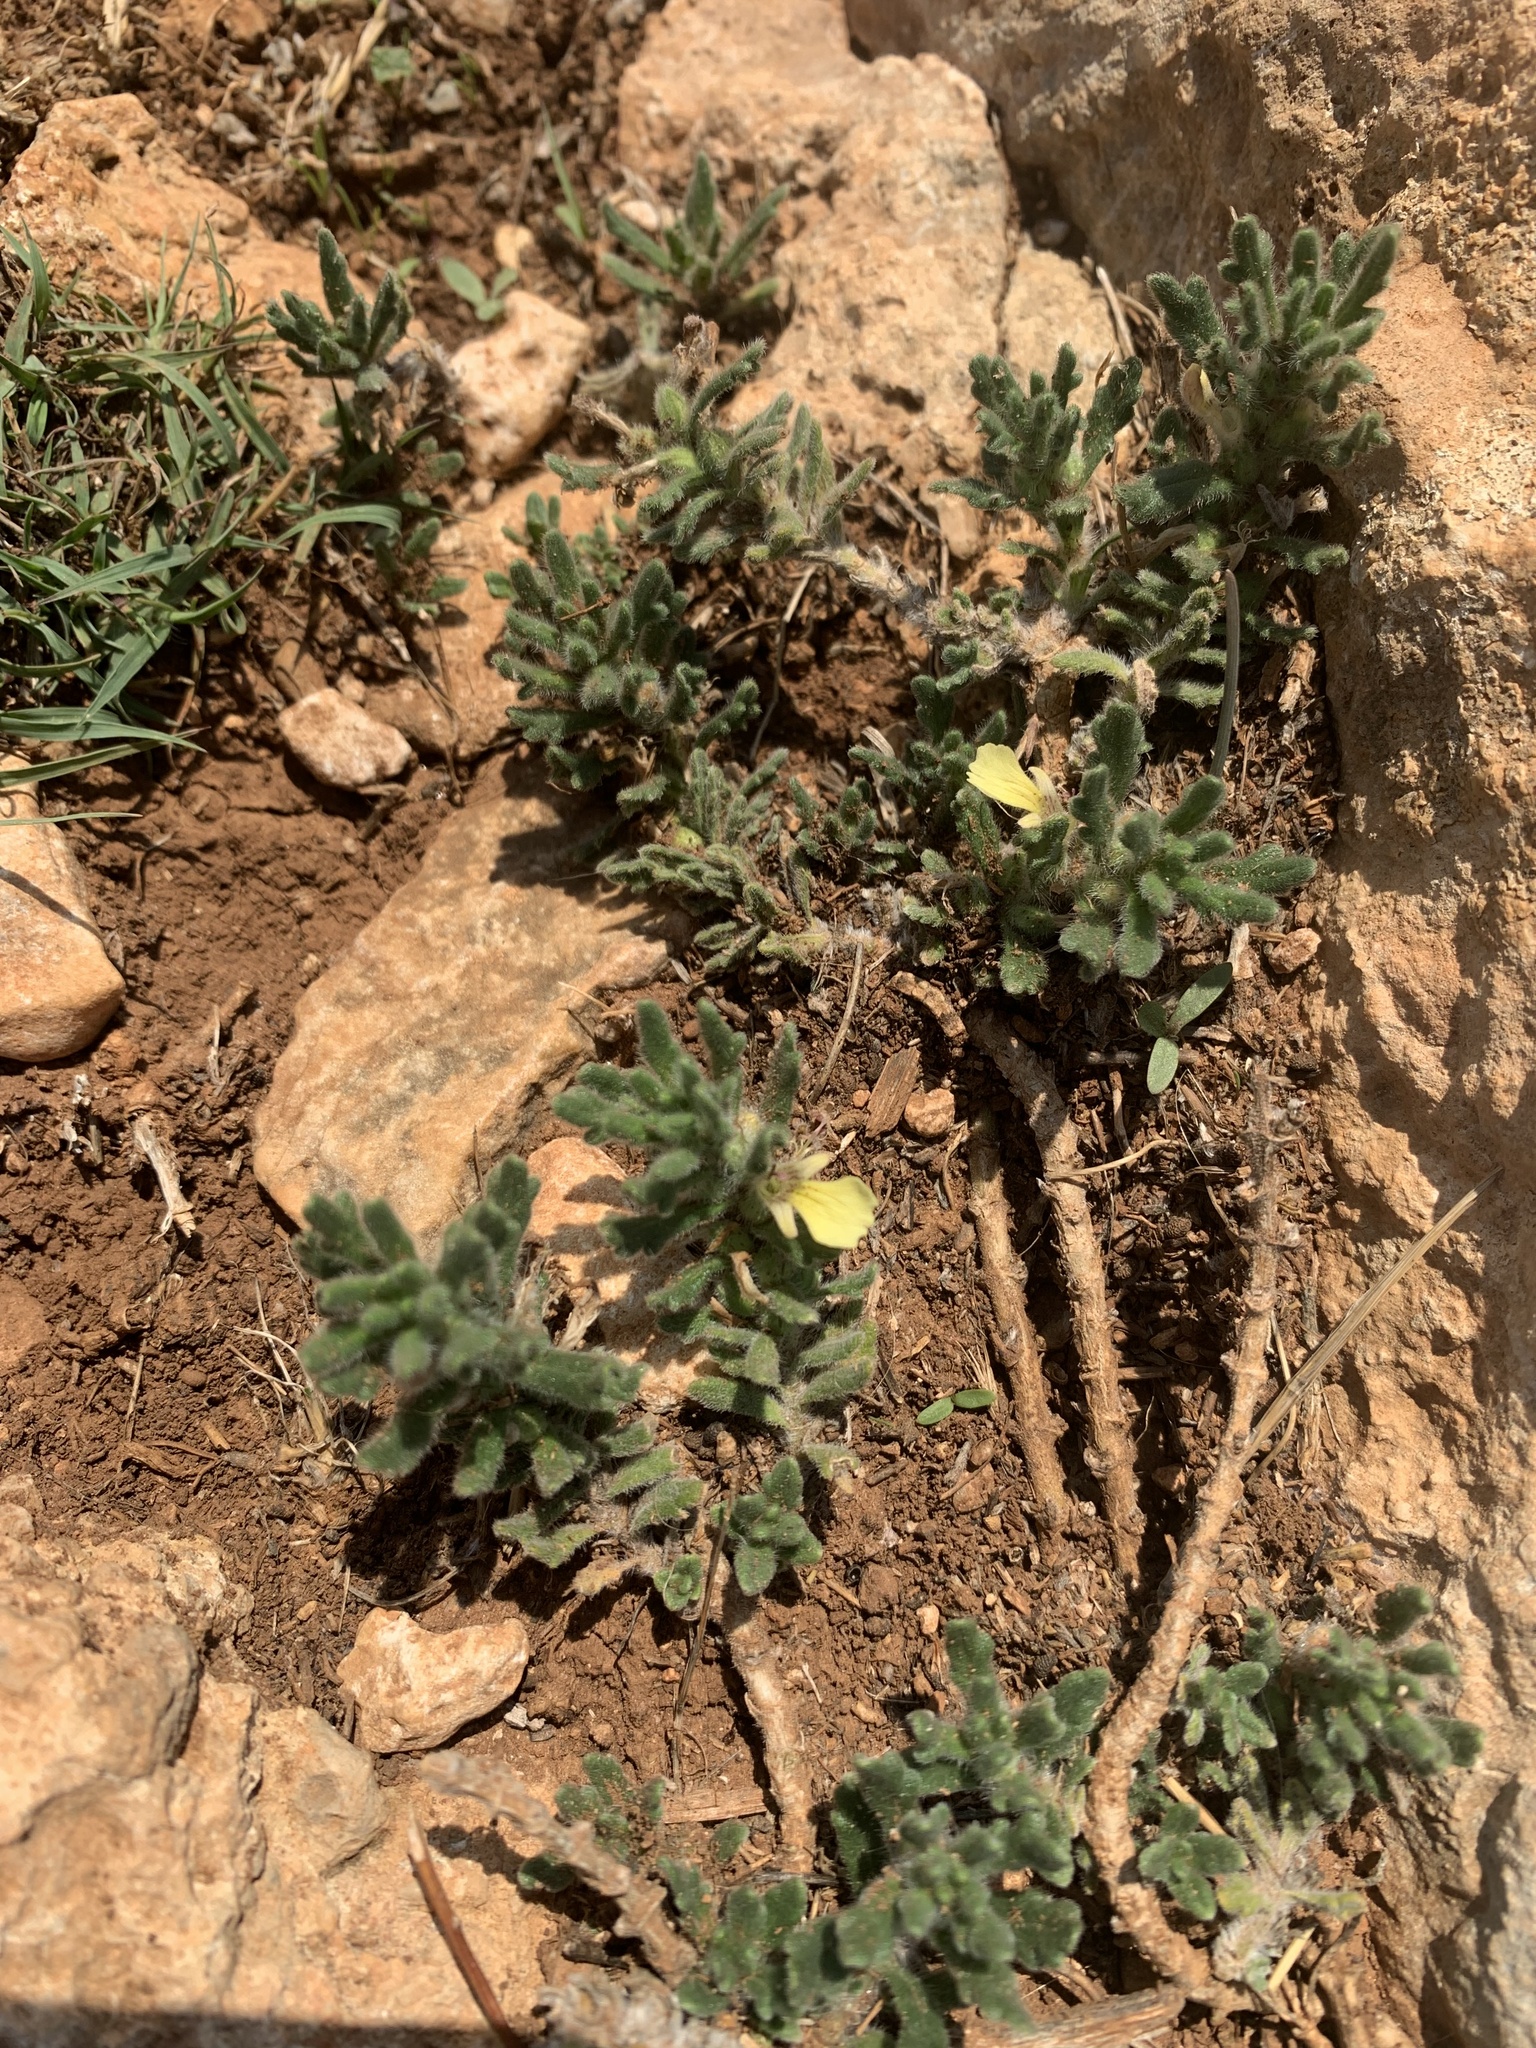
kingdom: Plantae
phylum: Tracheophyta
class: Magnoliopsida
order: Lamiales
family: Lamiaceae
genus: Ajuga
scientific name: Ajuga iva
